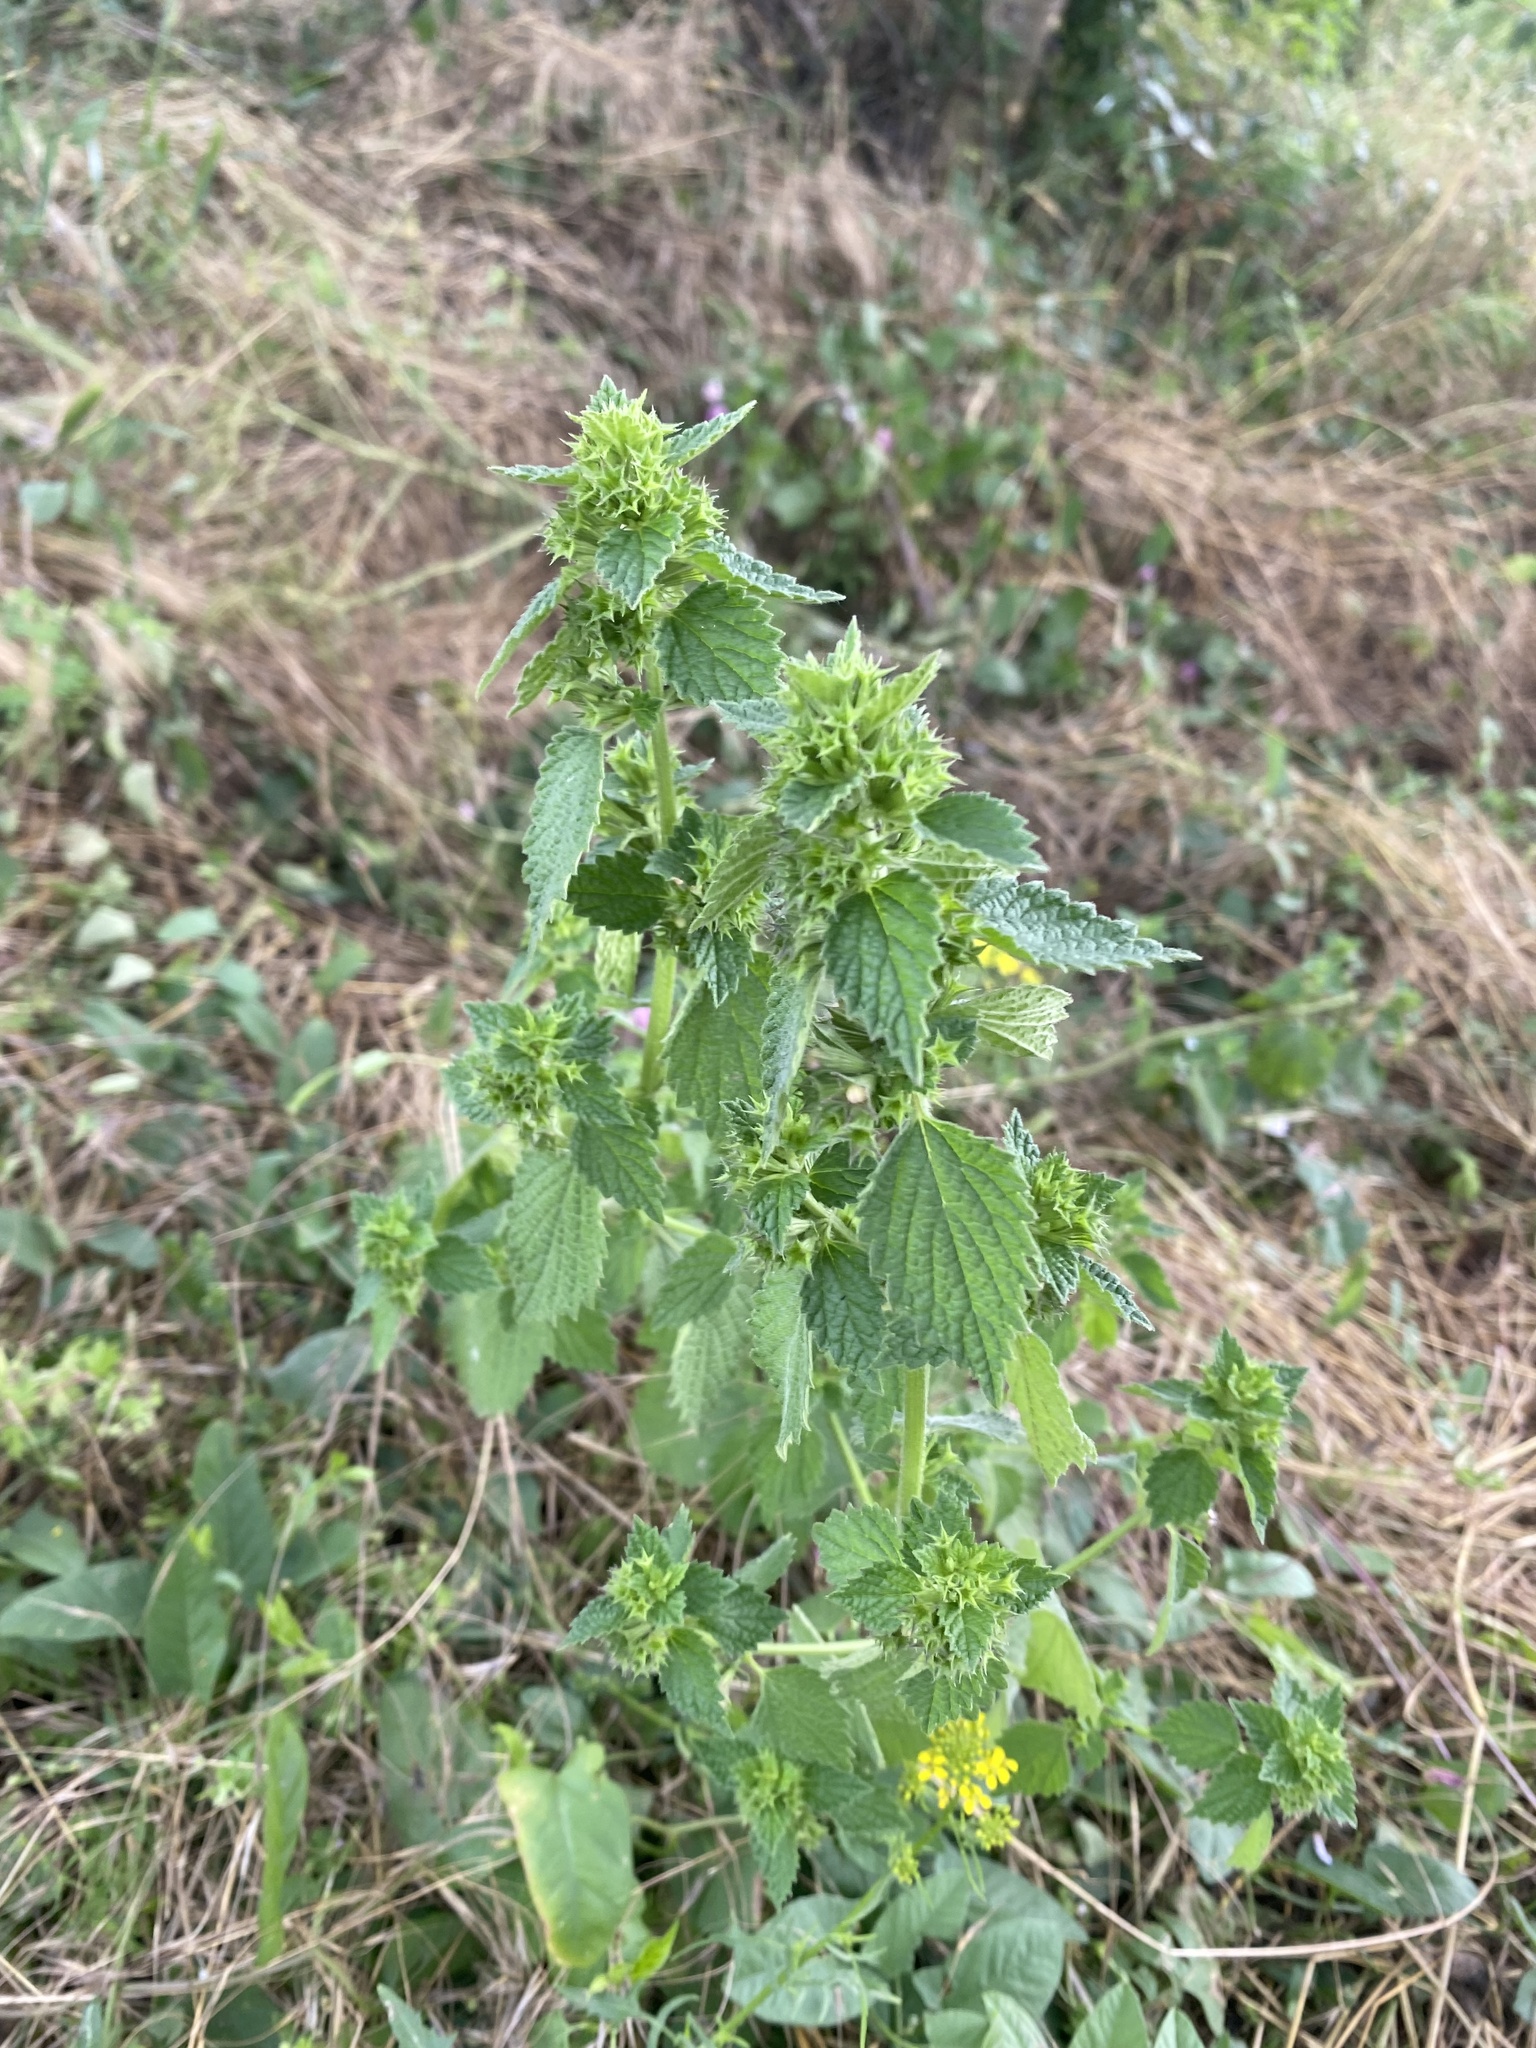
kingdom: Plantae
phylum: Tracheophyta
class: Magnoliopsida
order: Lamiales
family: Lamiaceae
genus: Ballota
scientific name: Ballota nigra
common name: Black horehound
